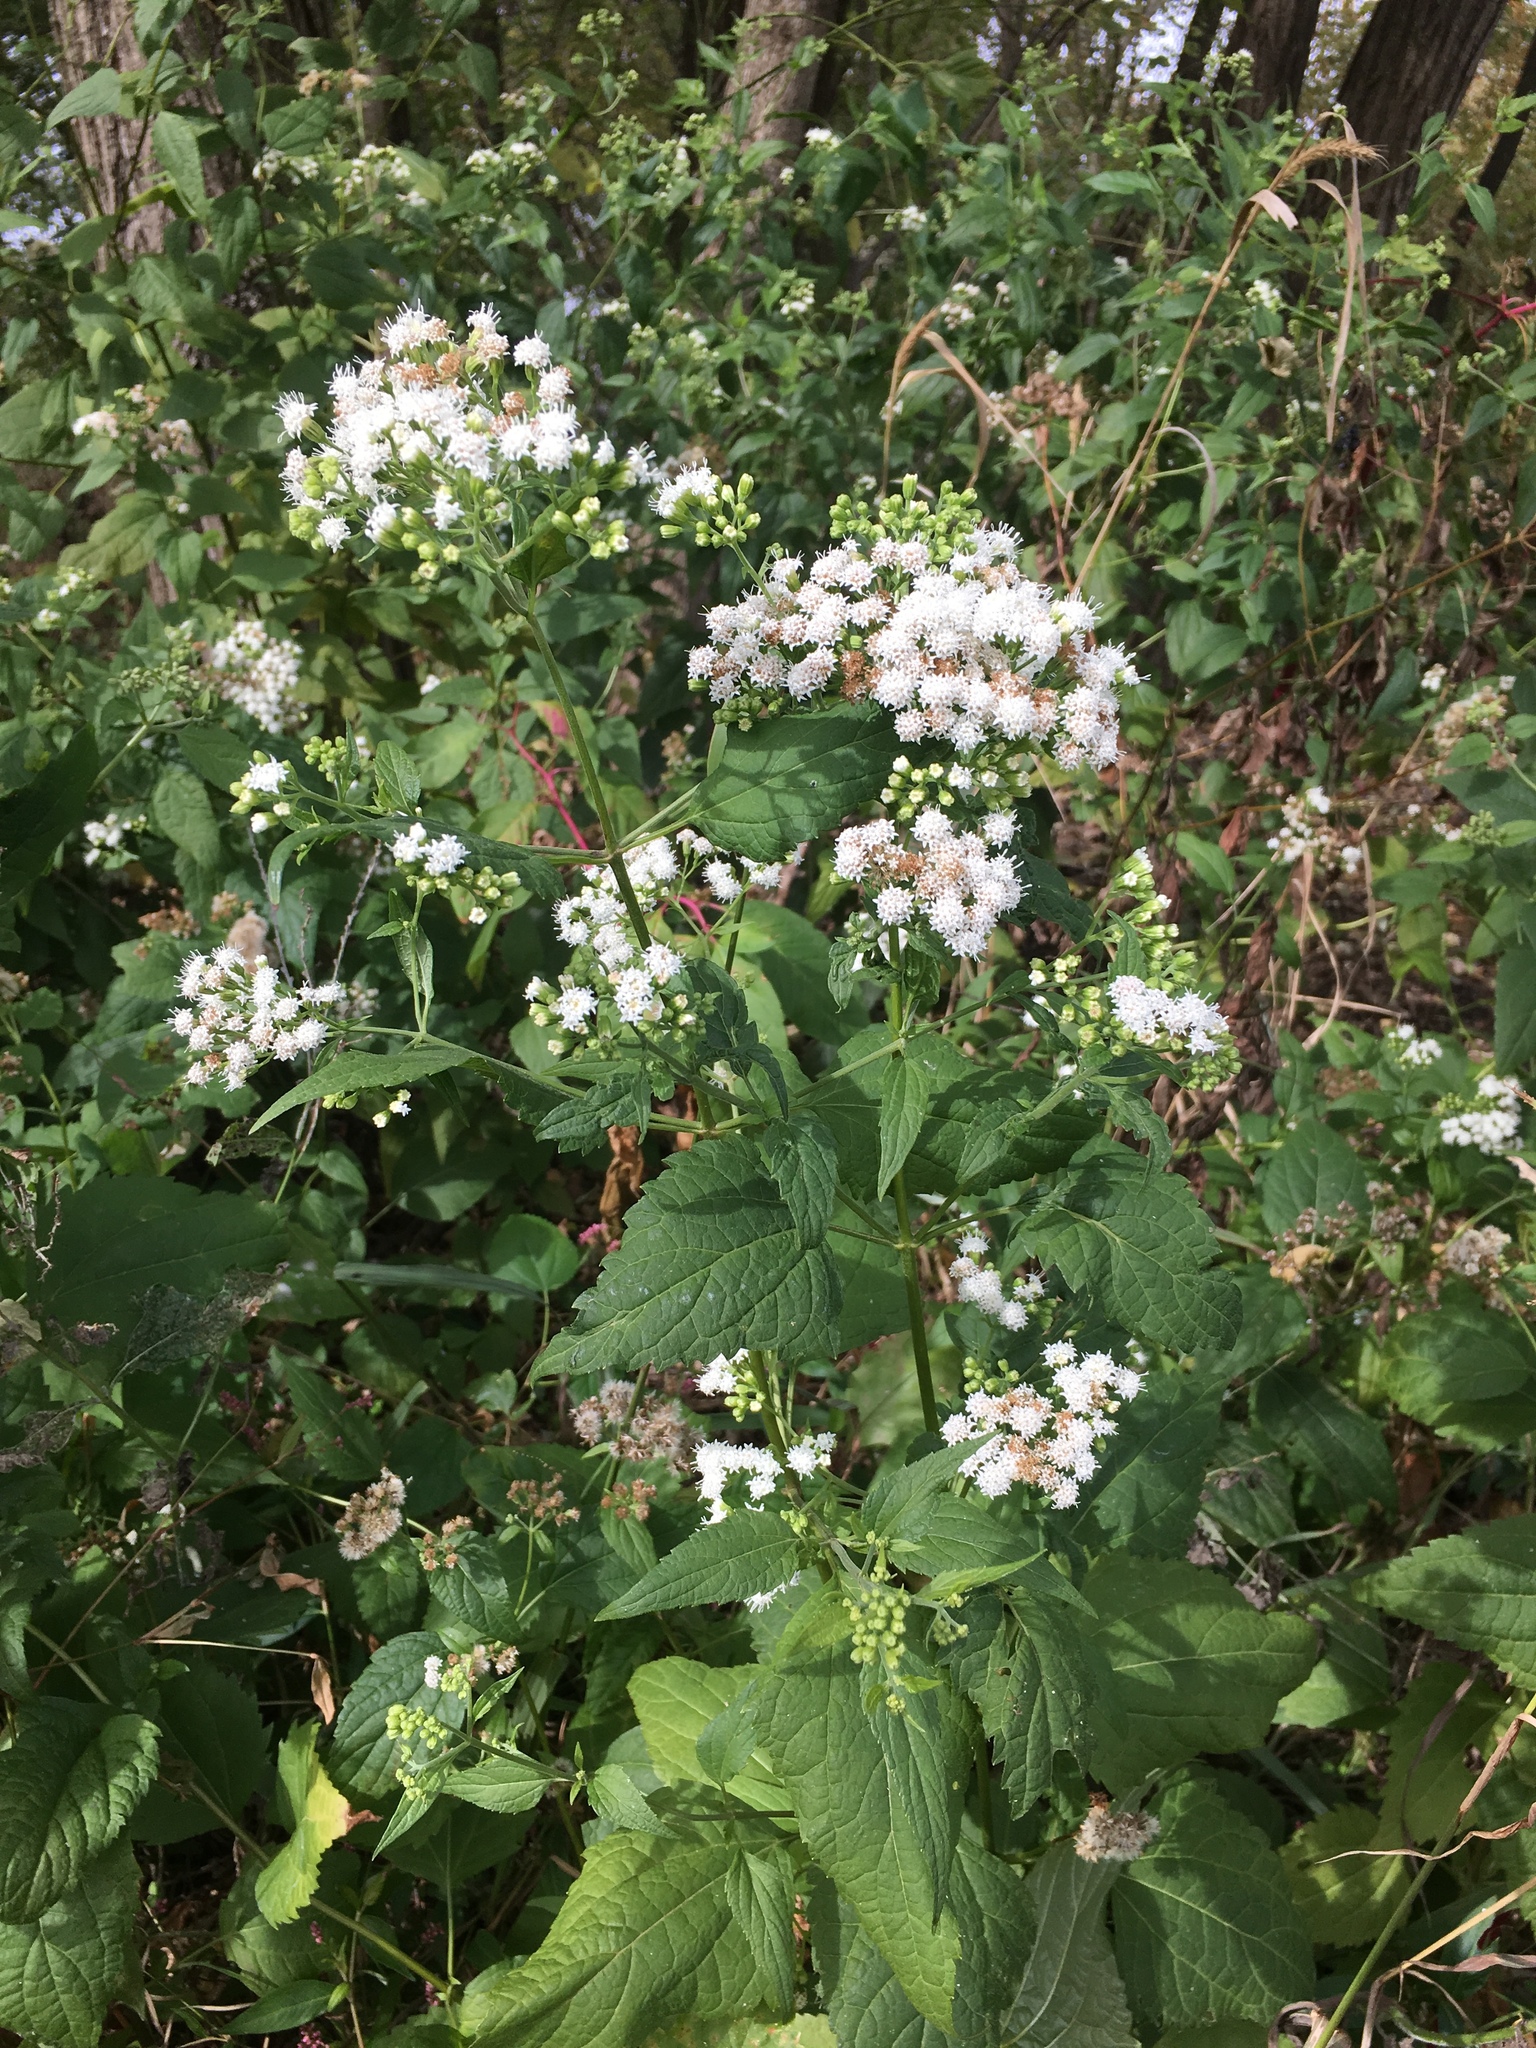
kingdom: Plantae
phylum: Tracheophyta
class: Magnoliopsida
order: Asterales
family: Asteraceae
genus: Ageratina
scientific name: Ageratina altissima
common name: White snakeroot
